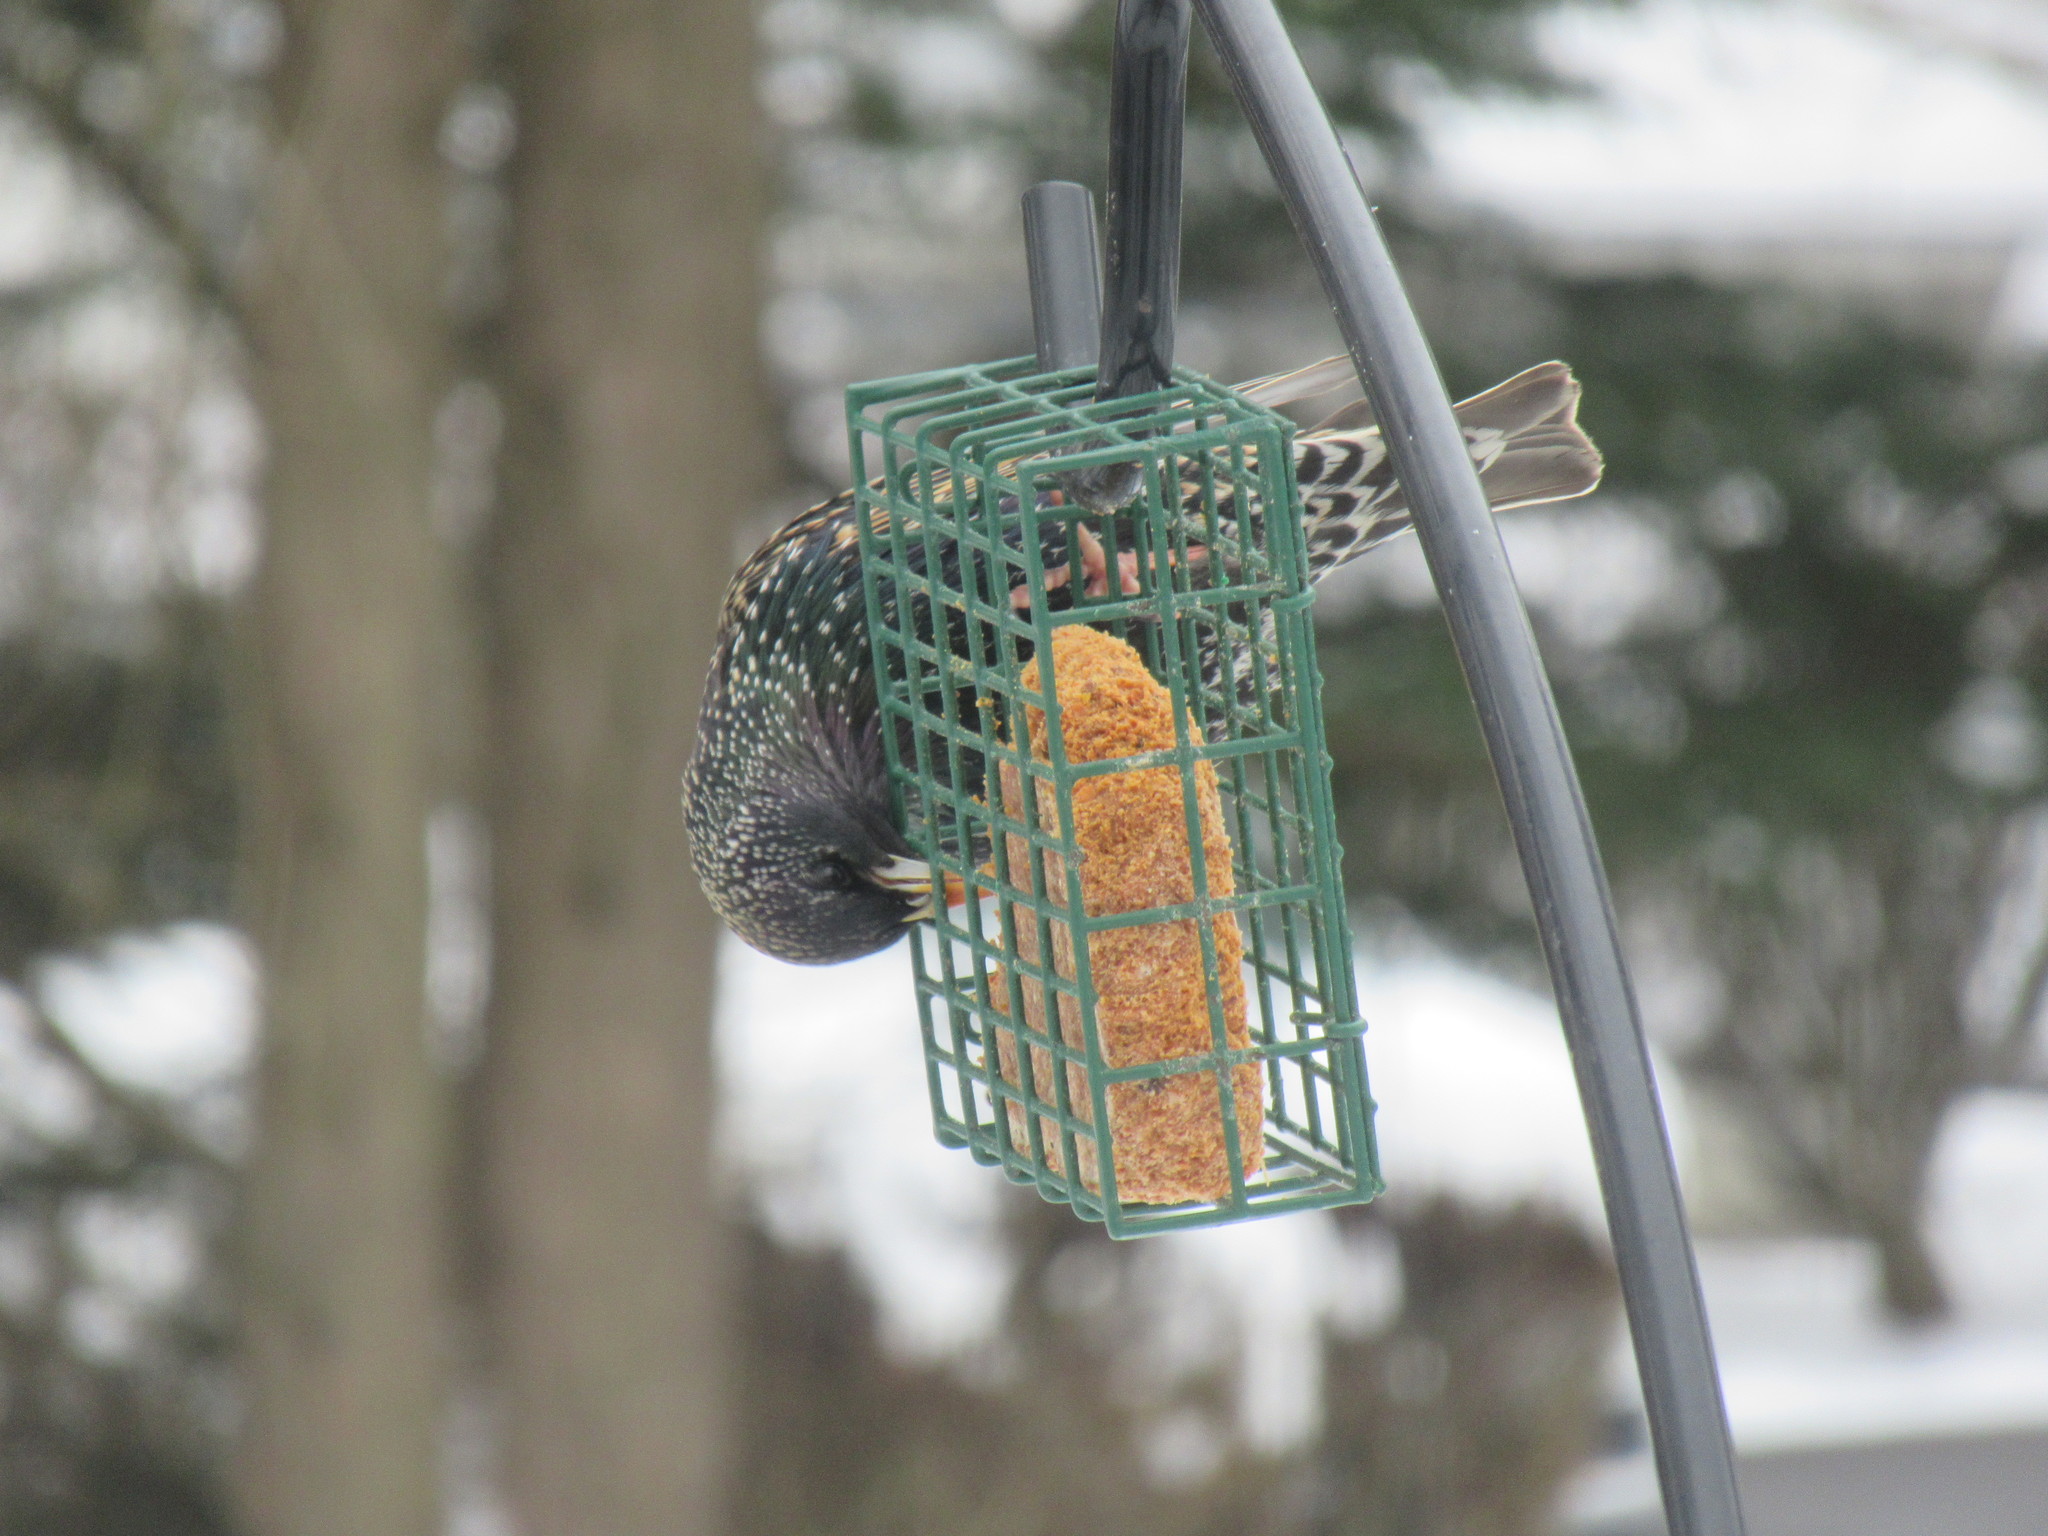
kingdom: Animalia
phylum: Chordata
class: Aves
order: Passeriformes
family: Sturnidae
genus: Sturnus
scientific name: Sturnus vulgaris
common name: Common starling
